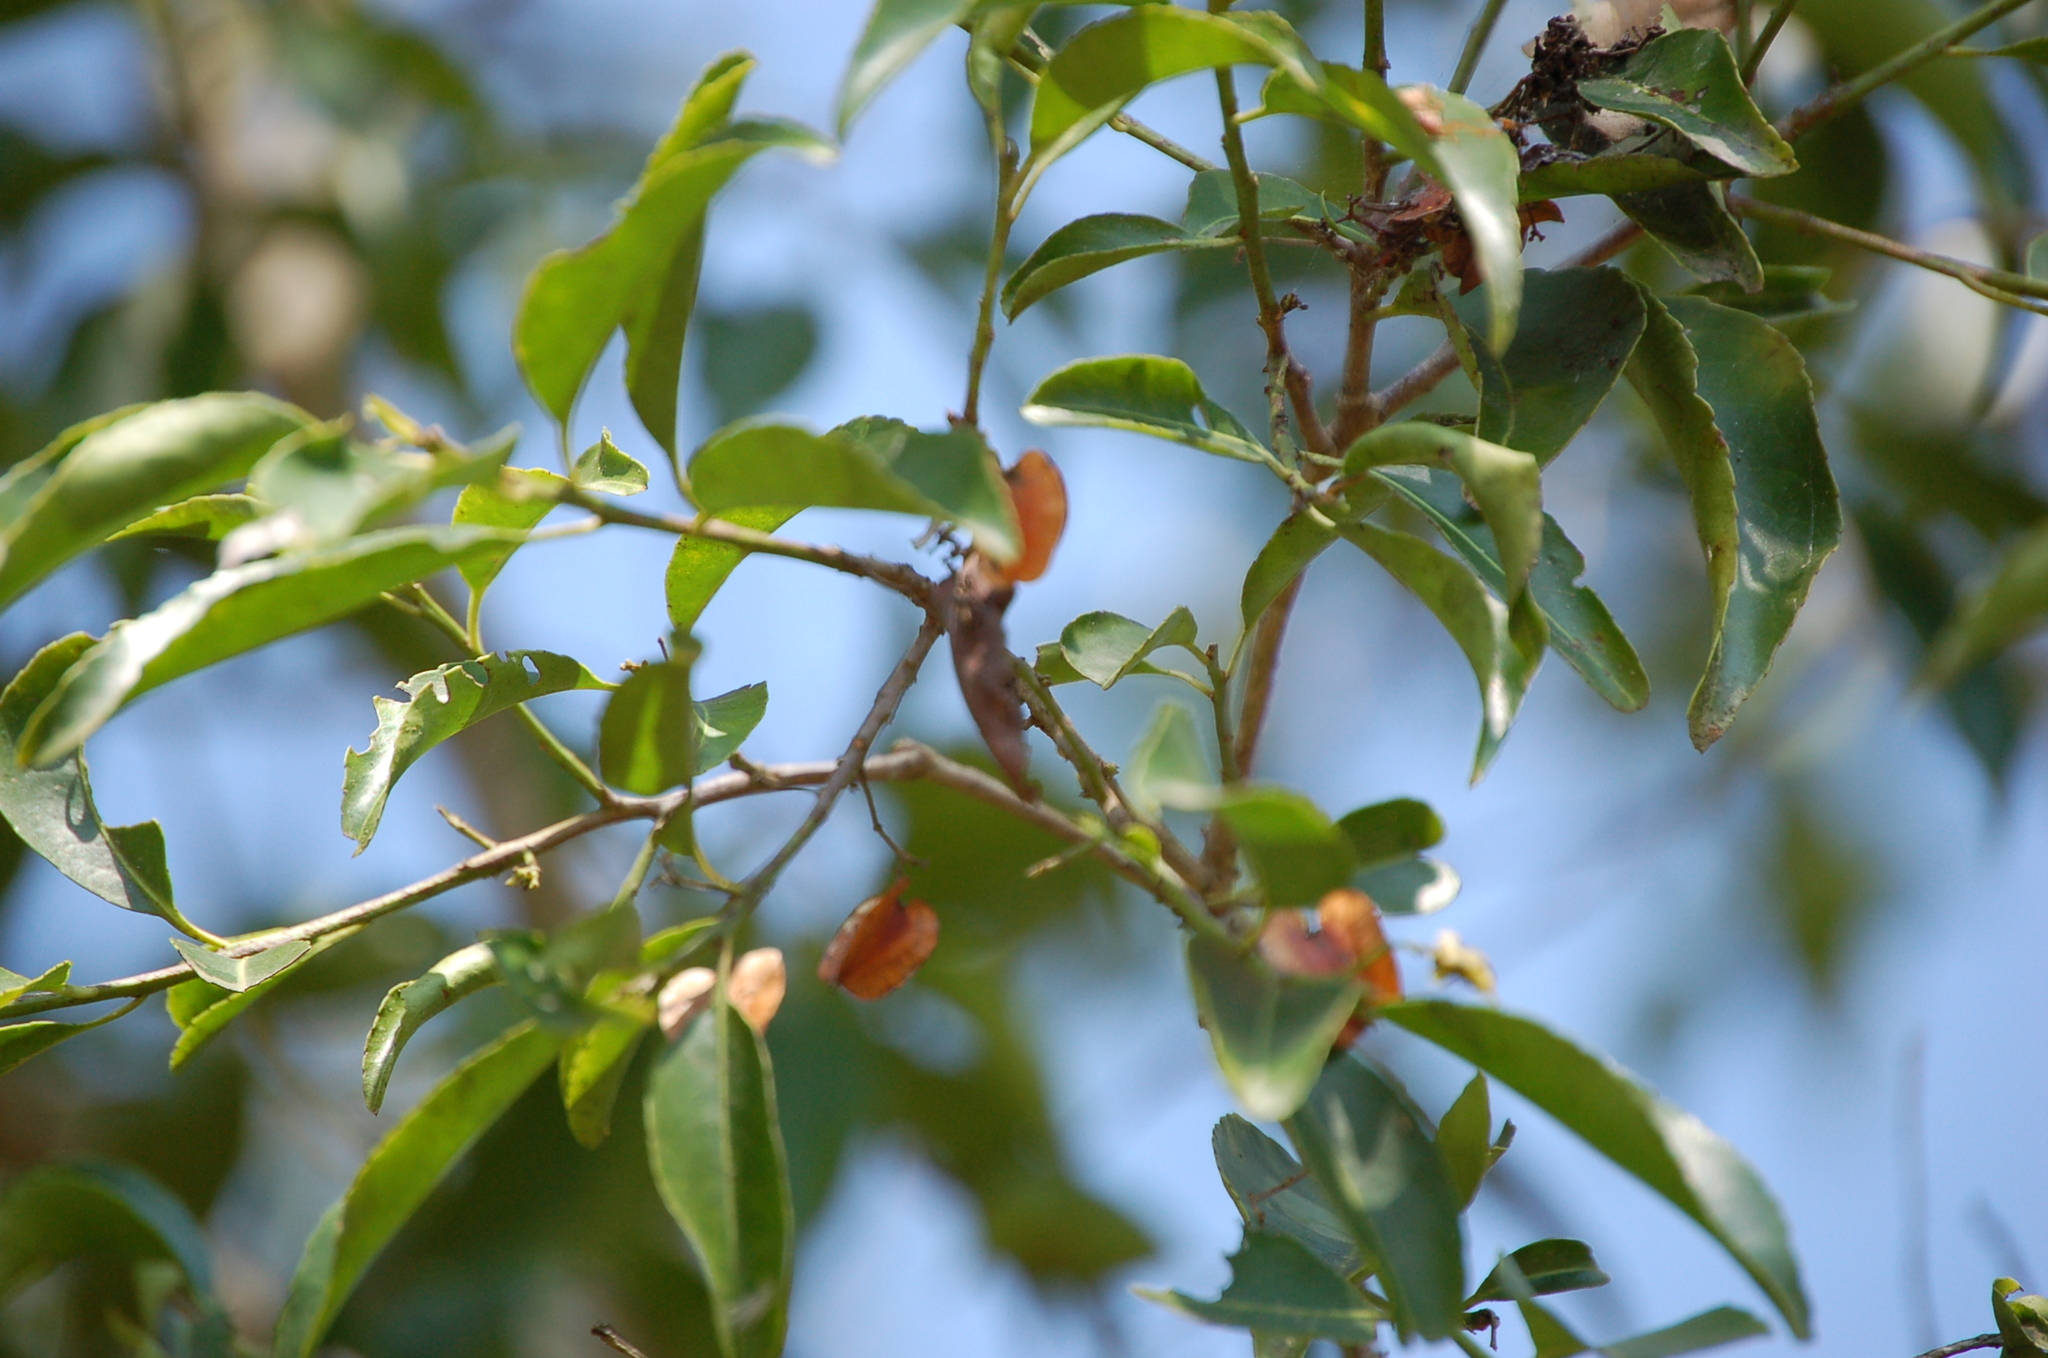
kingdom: Plantae
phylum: Tracheophyta
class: Magnoliopsida
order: Celastrales
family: Celastraceae
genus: Wimmeria
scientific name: Wimmeria bartlettii
